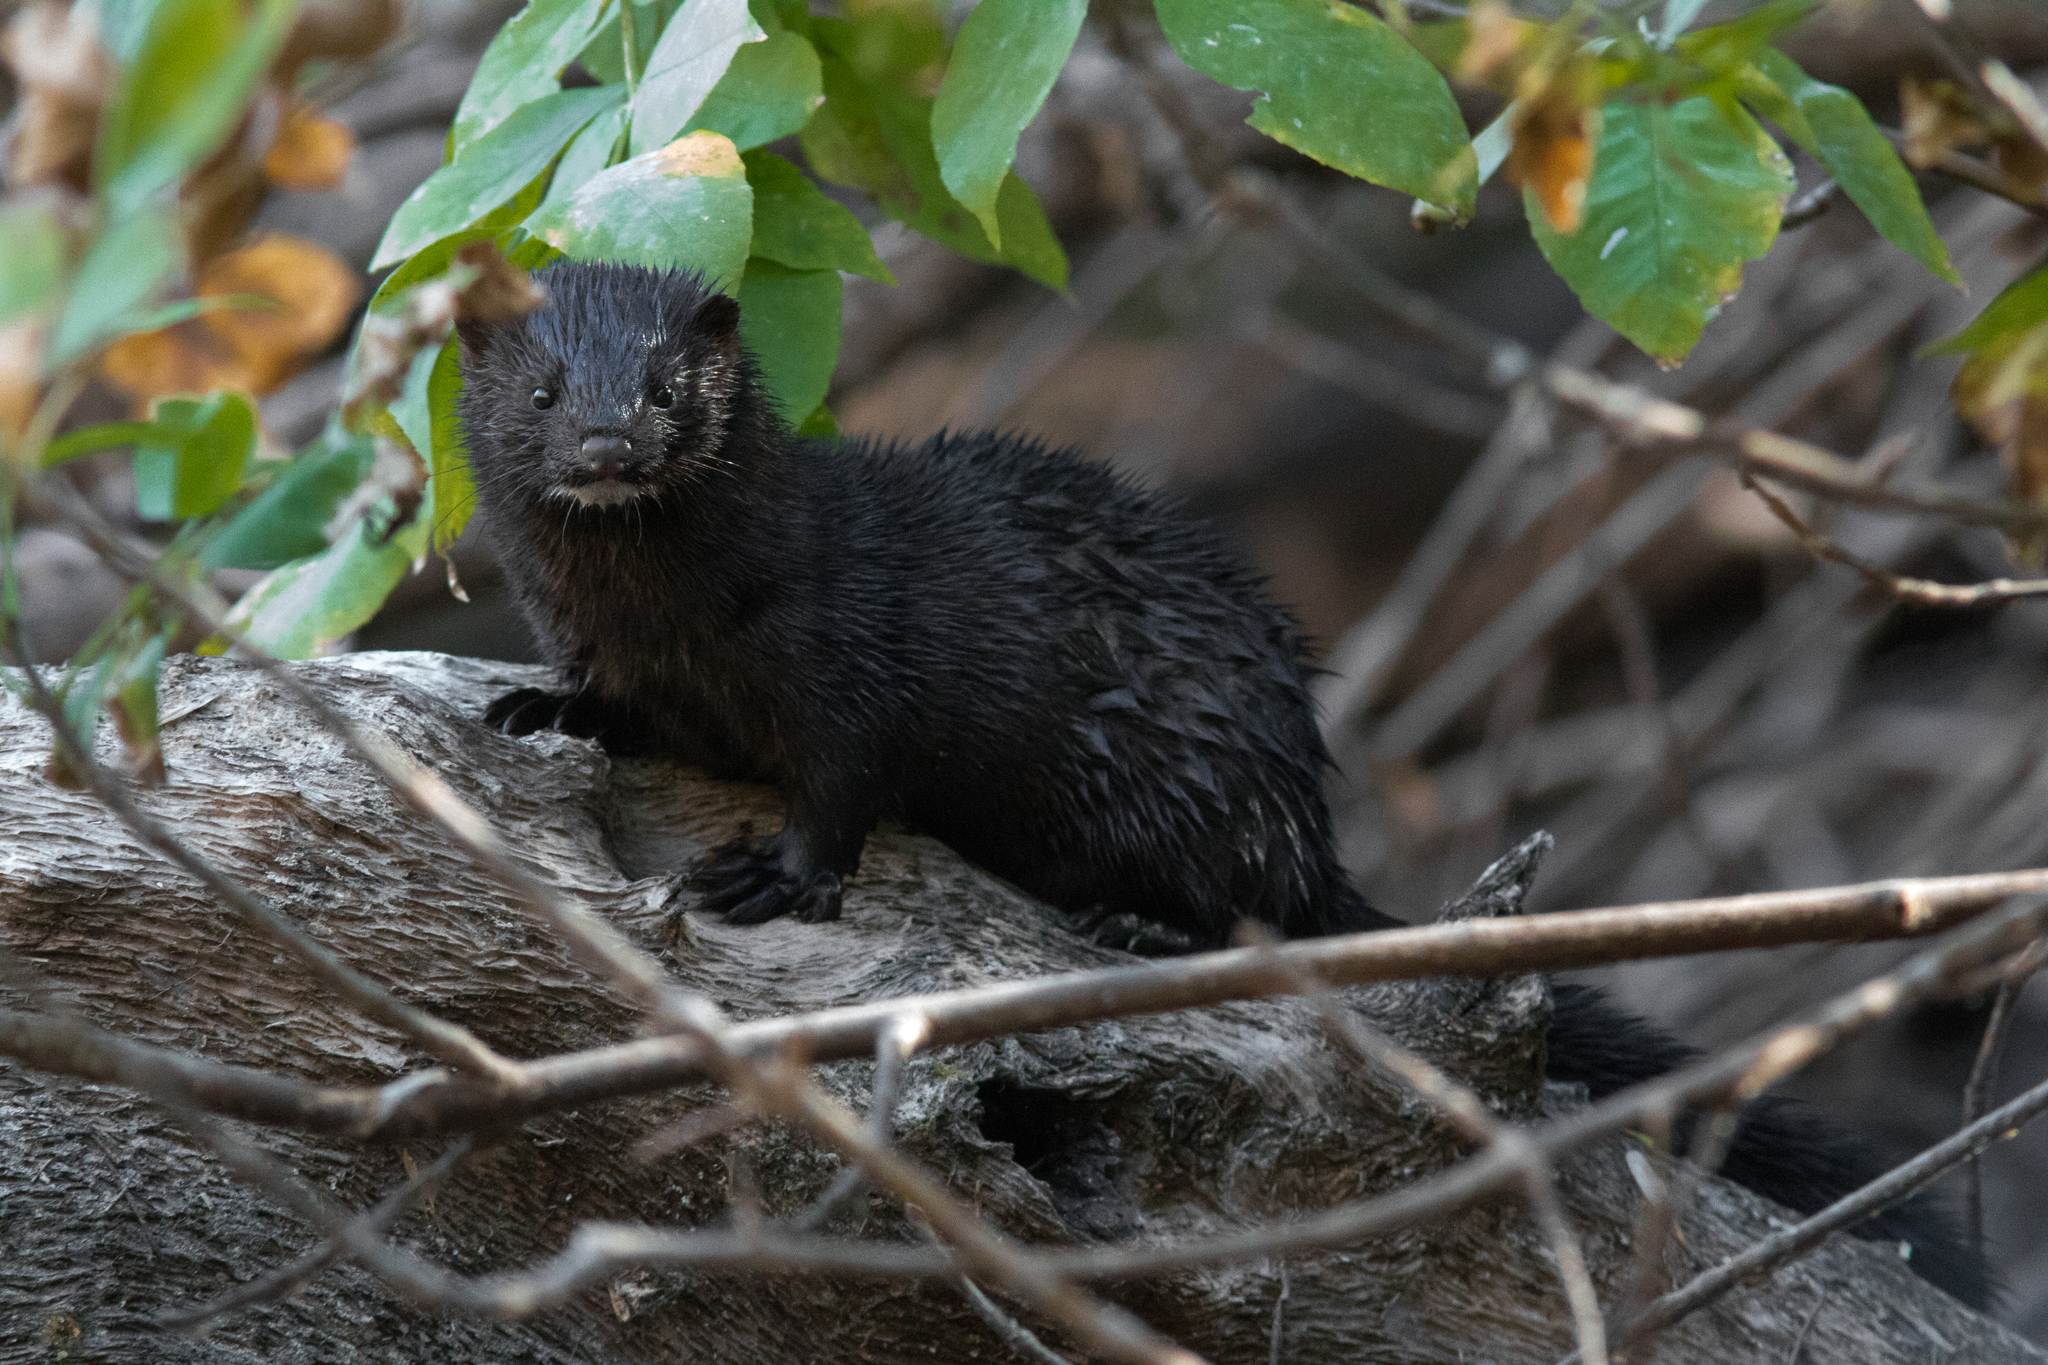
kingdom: Animalia
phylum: Chordata
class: Mammalia
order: Carnivora
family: Mustelidae
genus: Mustela
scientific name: Mustela
